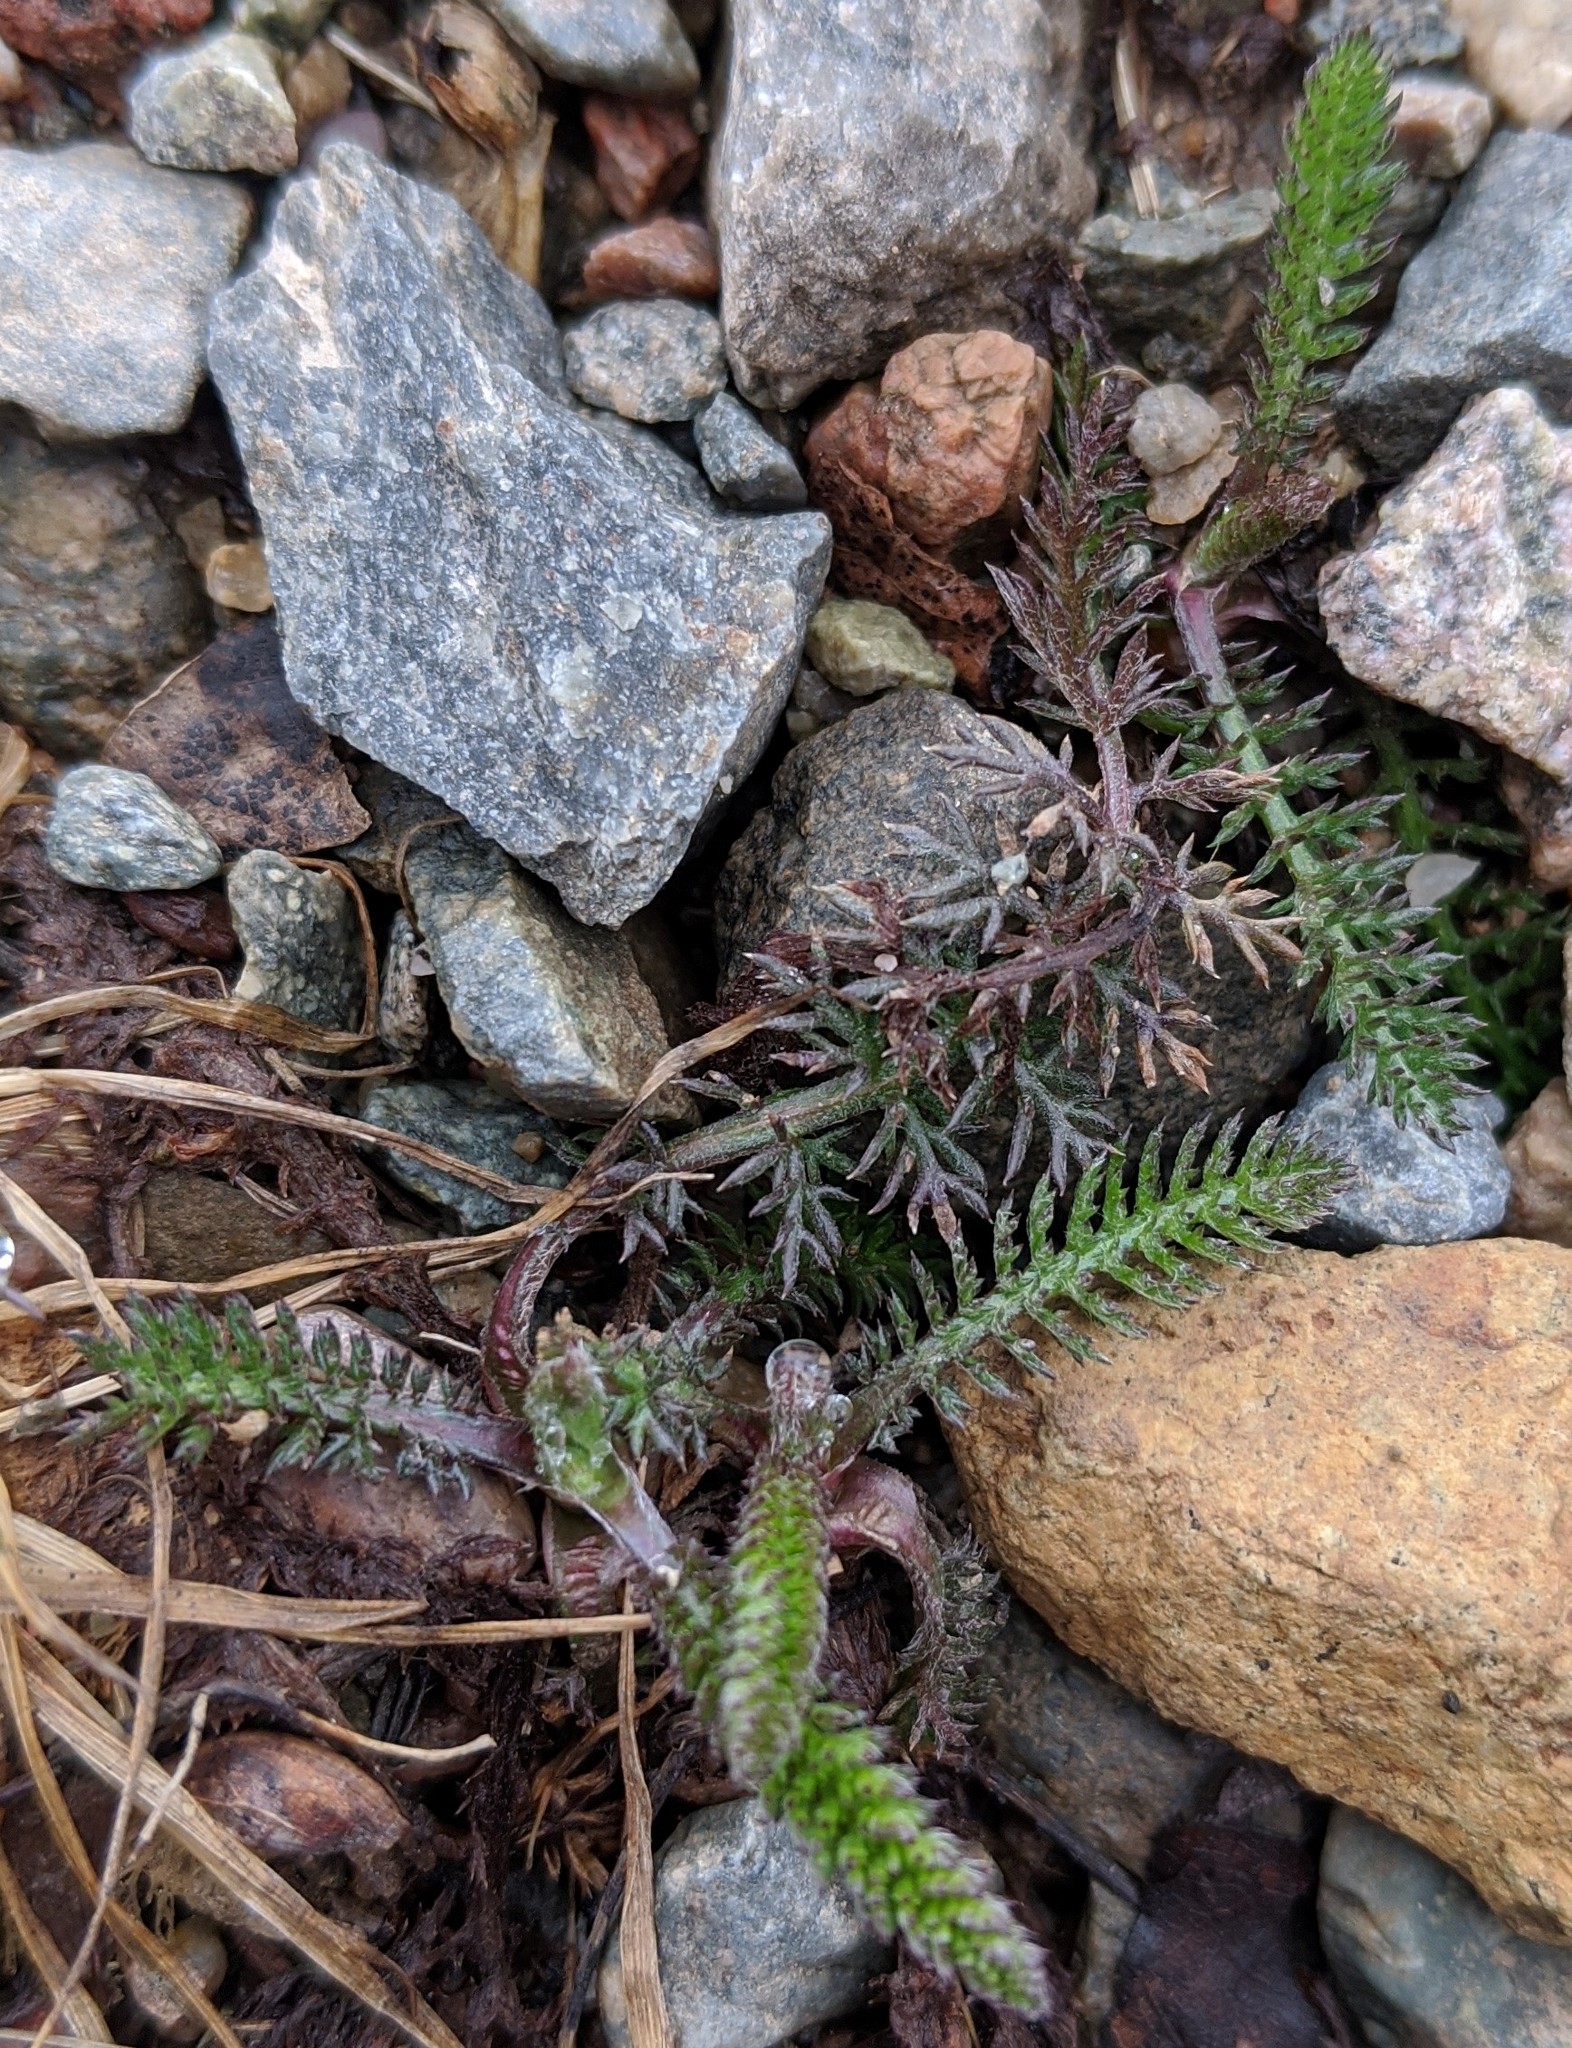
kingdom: Plantae
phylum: Tracheophyta
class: Magnoliopsida
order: Asterales
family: Asteraceae
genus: Achillea
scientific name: Achillea millefolium
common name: Yarrow
